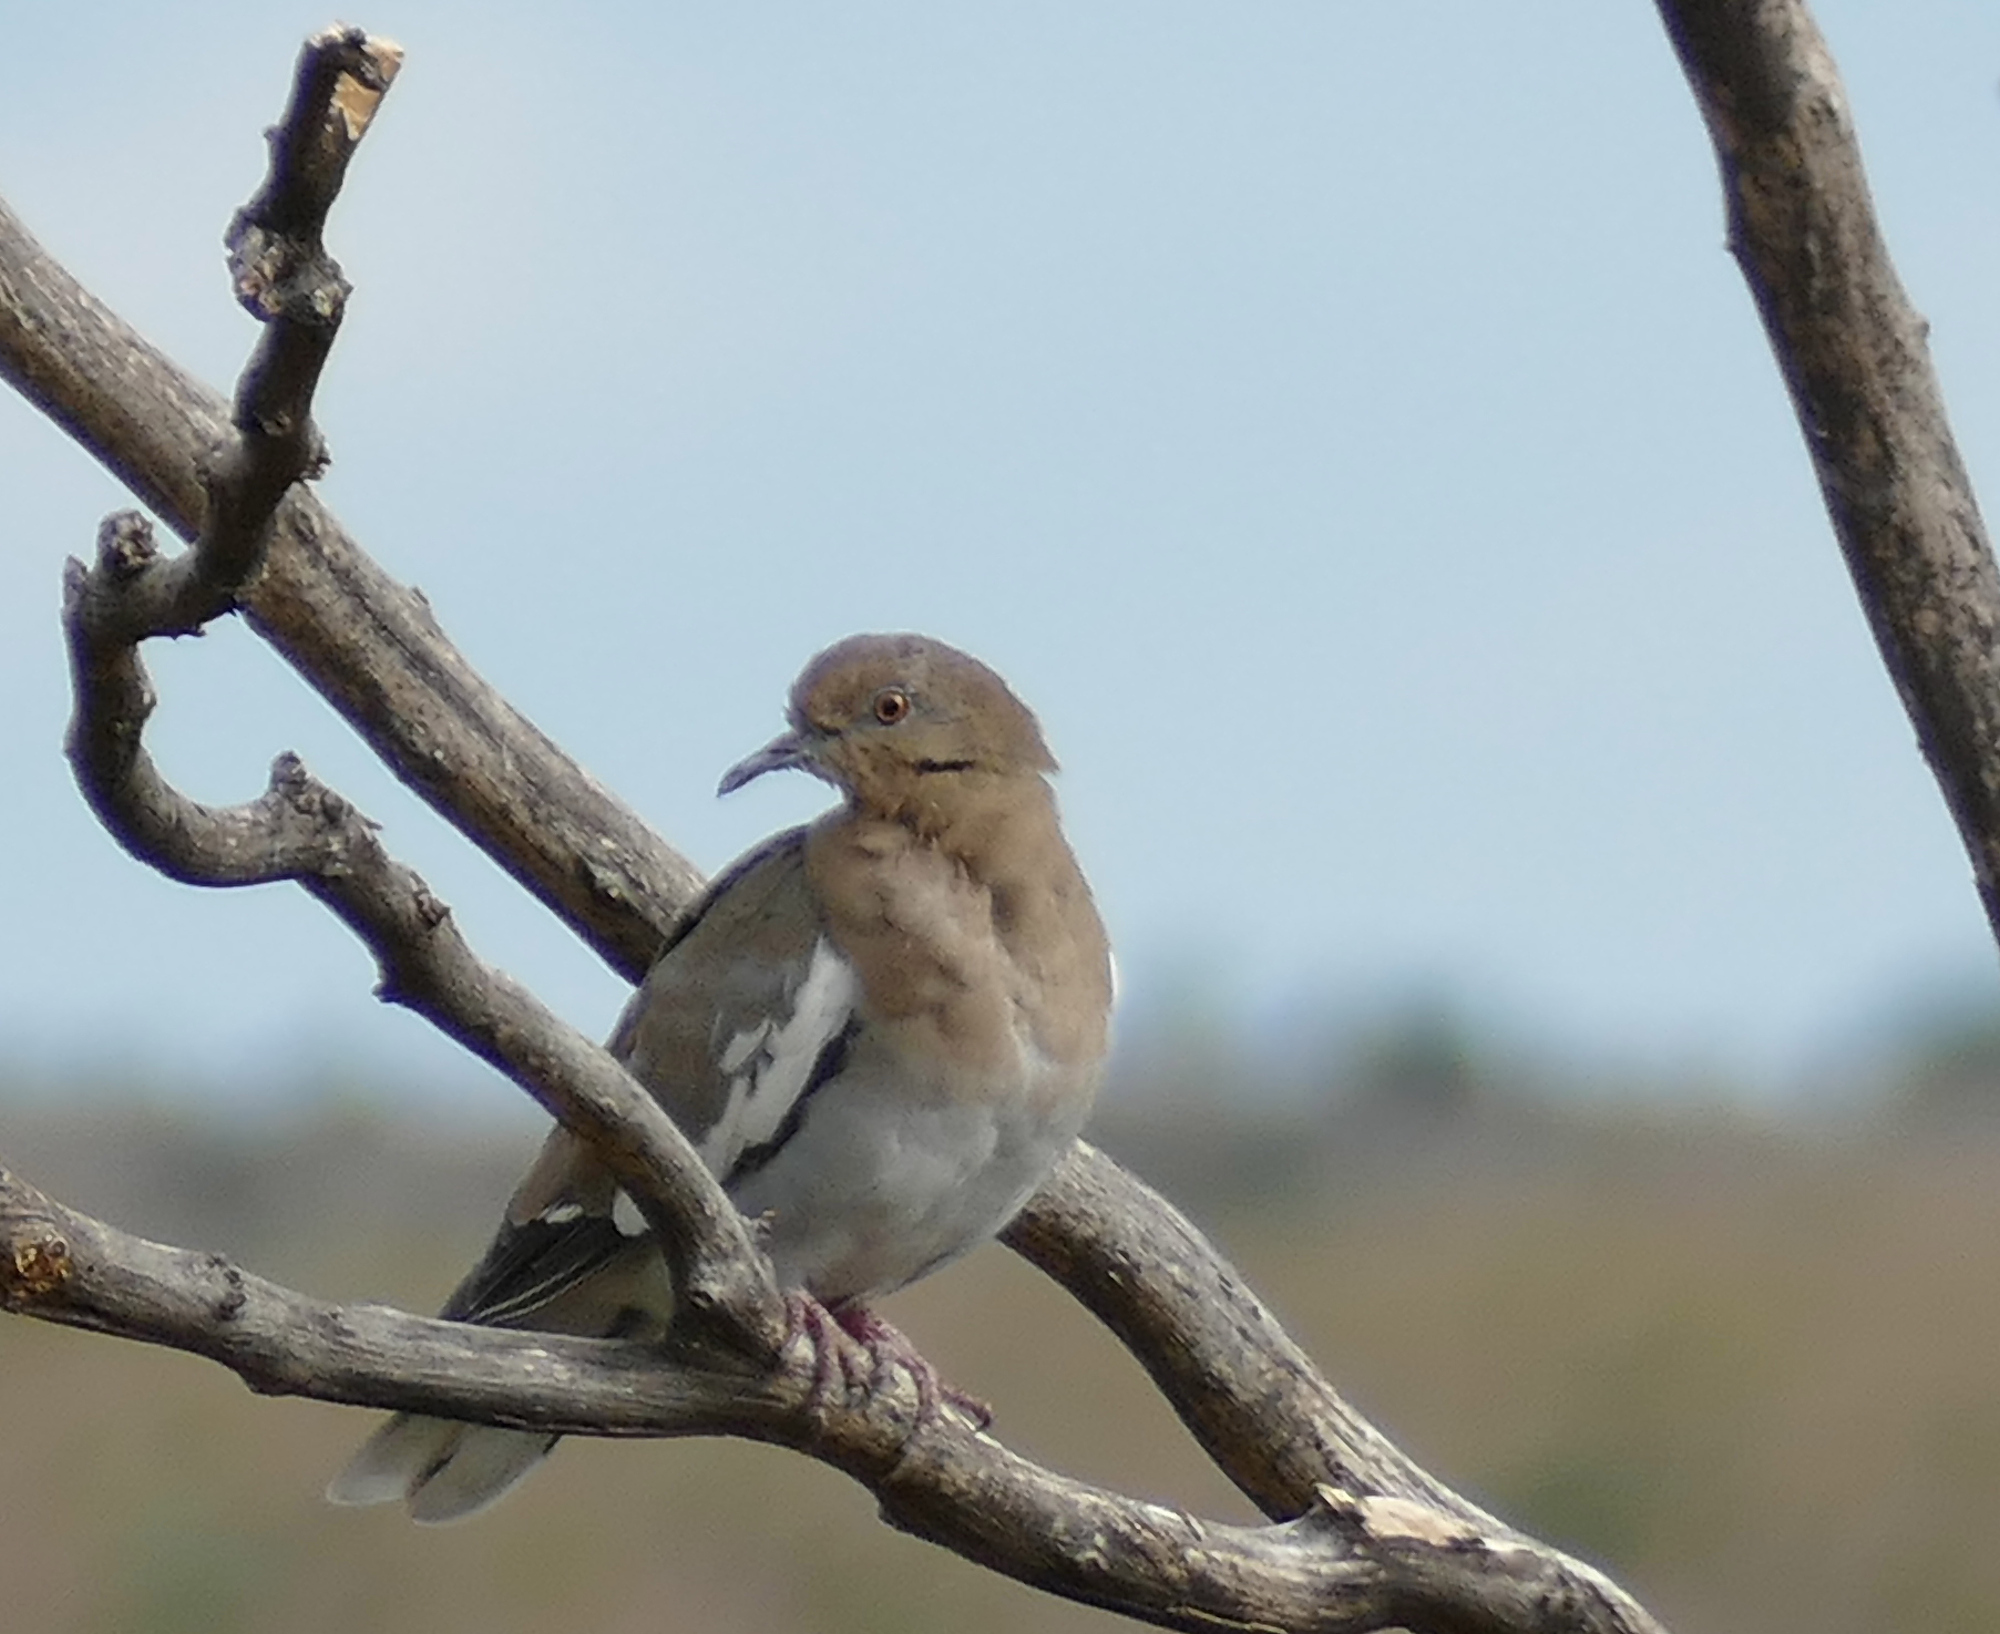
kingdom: Animalia
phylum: Chordata
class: Aves
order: Columbiformes
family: Columbidae
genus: Zenaida
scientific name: Zenaida asiatica
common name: White-winged dove
